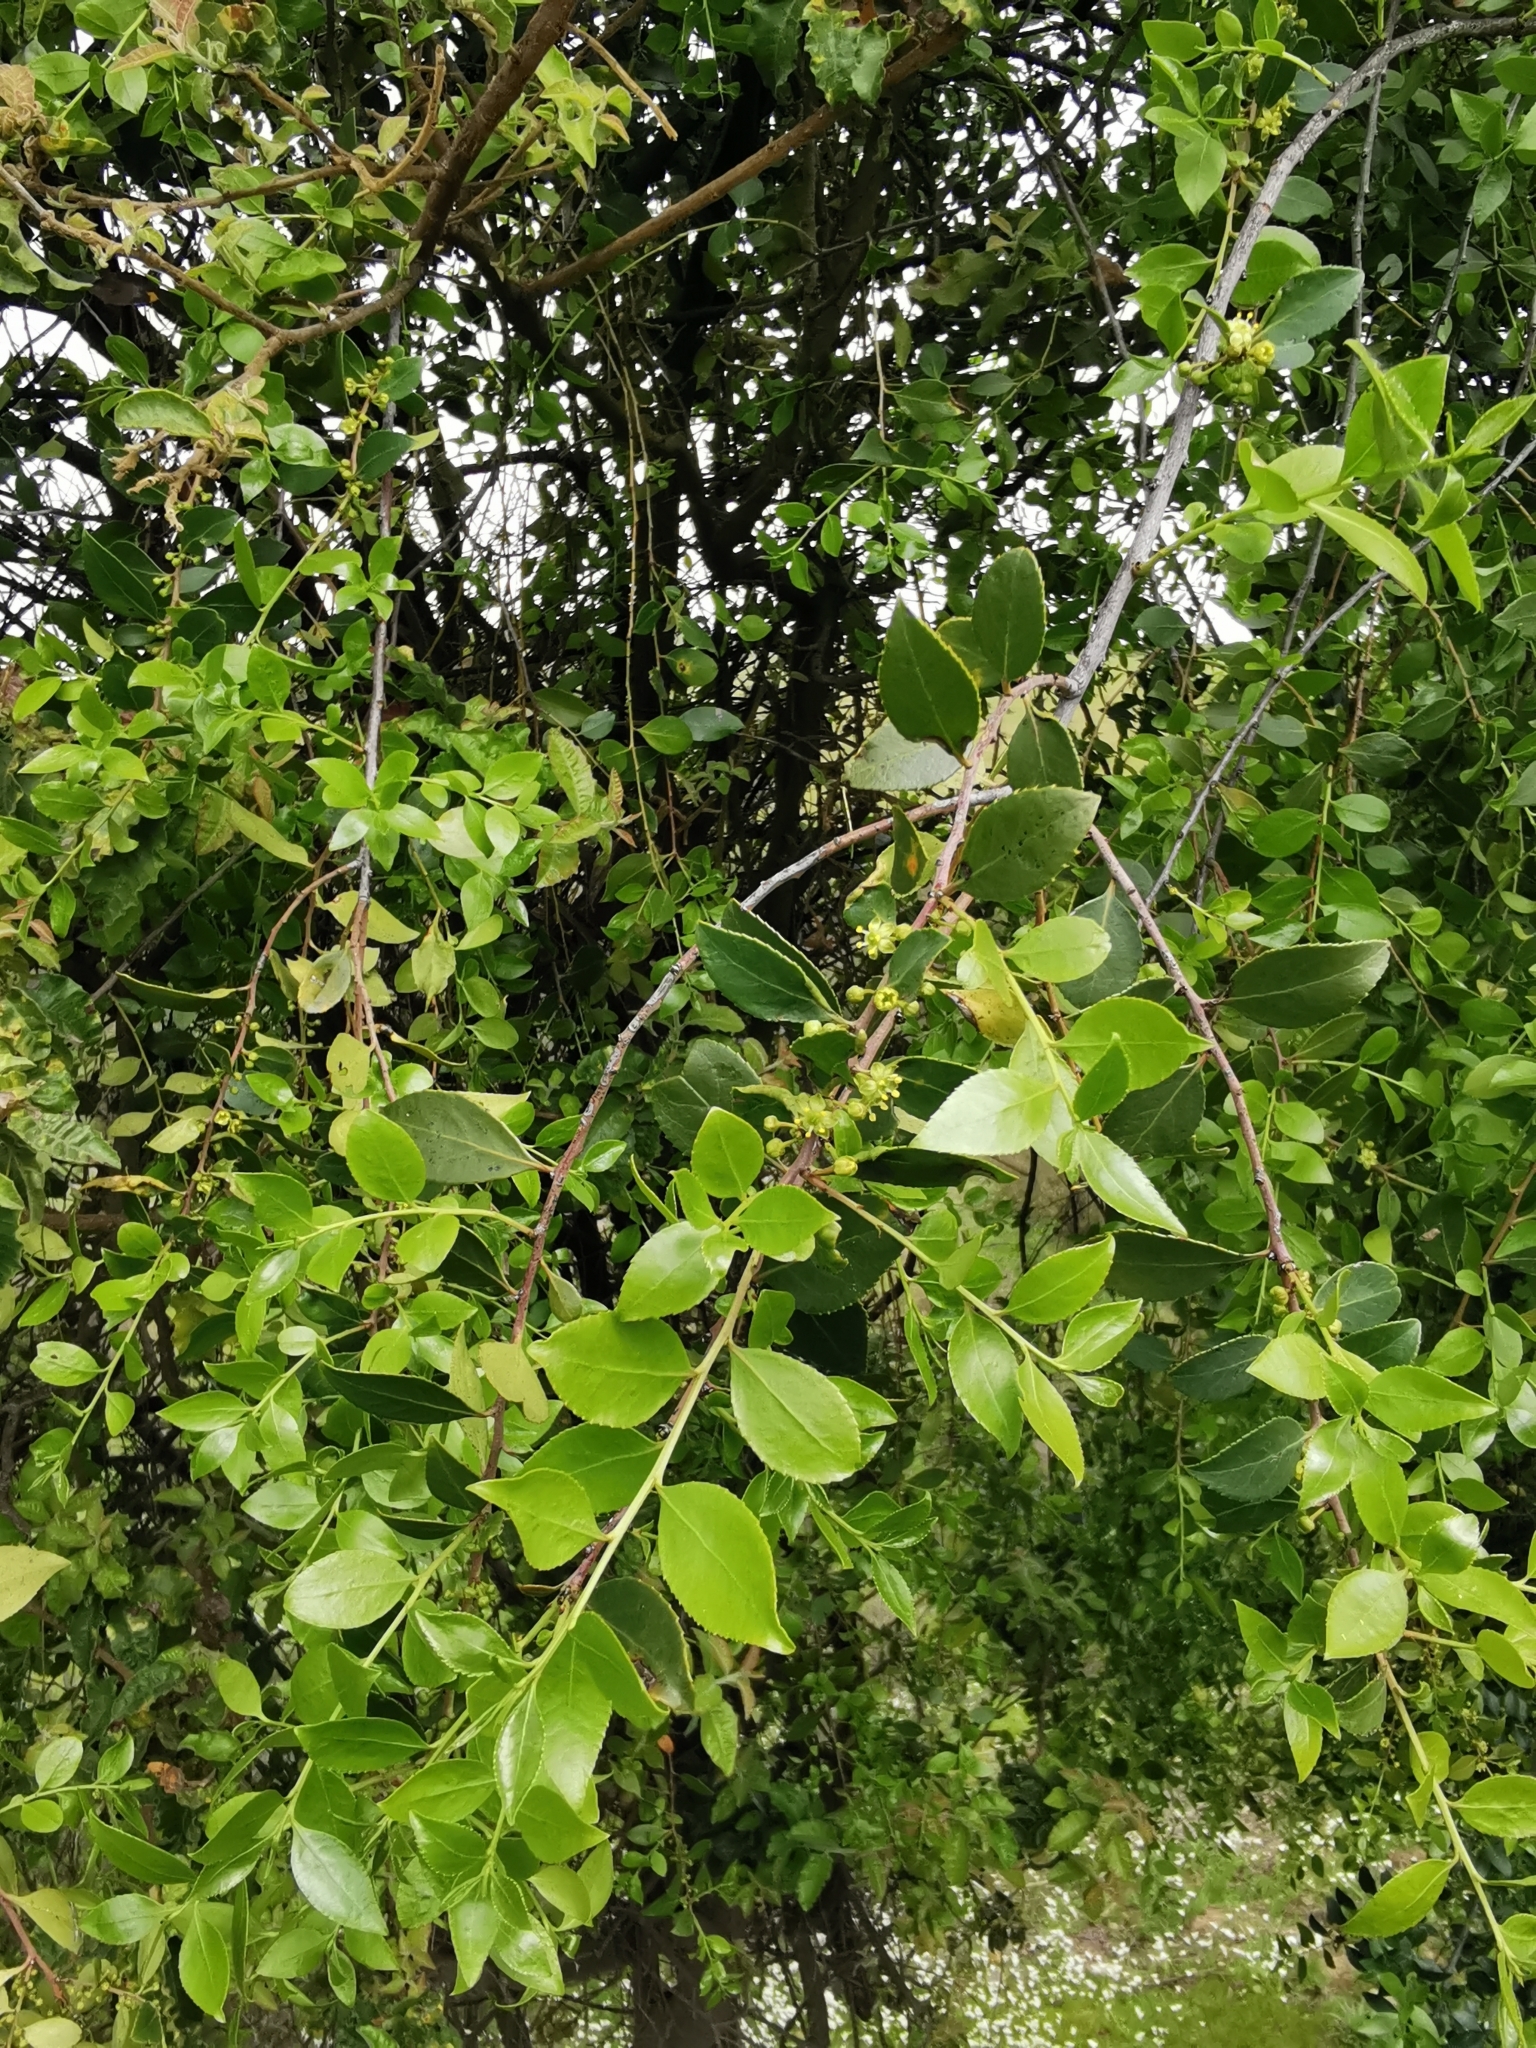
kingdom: Plantae
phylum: Tracheophyta
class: Magnoliopsida
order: Celastrales
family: Celastraceae
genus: Maytenus
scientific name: Maytenus boaria
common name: Mayten
